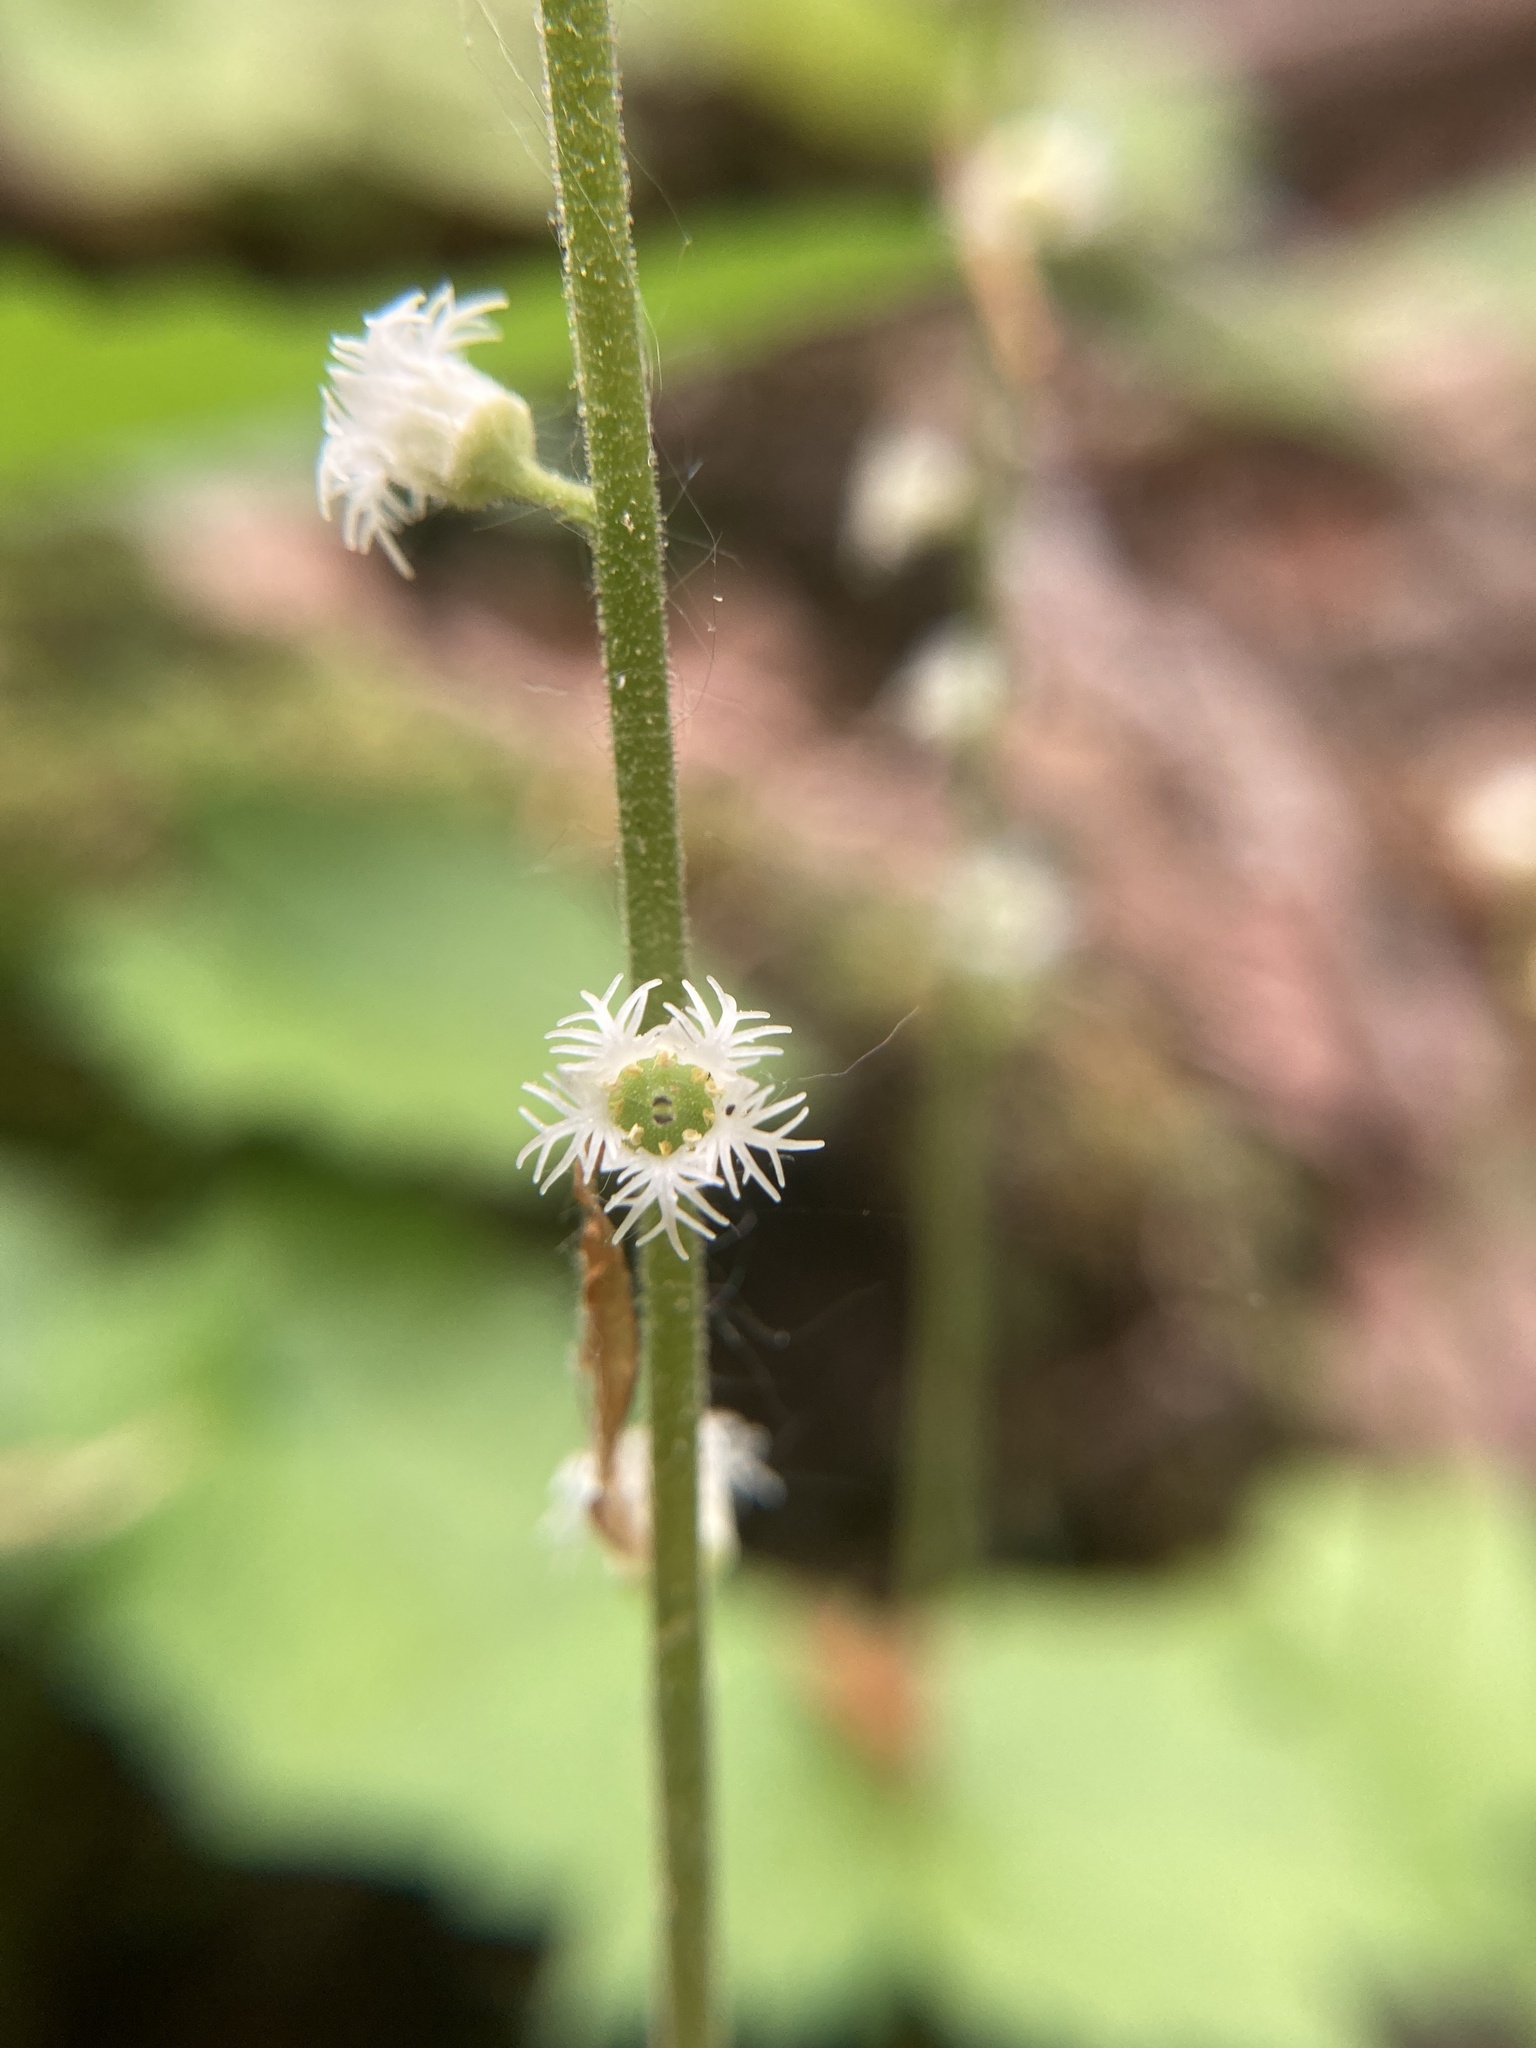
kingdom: Plantae
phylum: Tracheophyta
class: Magnoliopsida
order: Saxifragales
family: Saxifragaceae
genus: Mitella
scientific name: Mitella diphylla
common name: Coolwort
